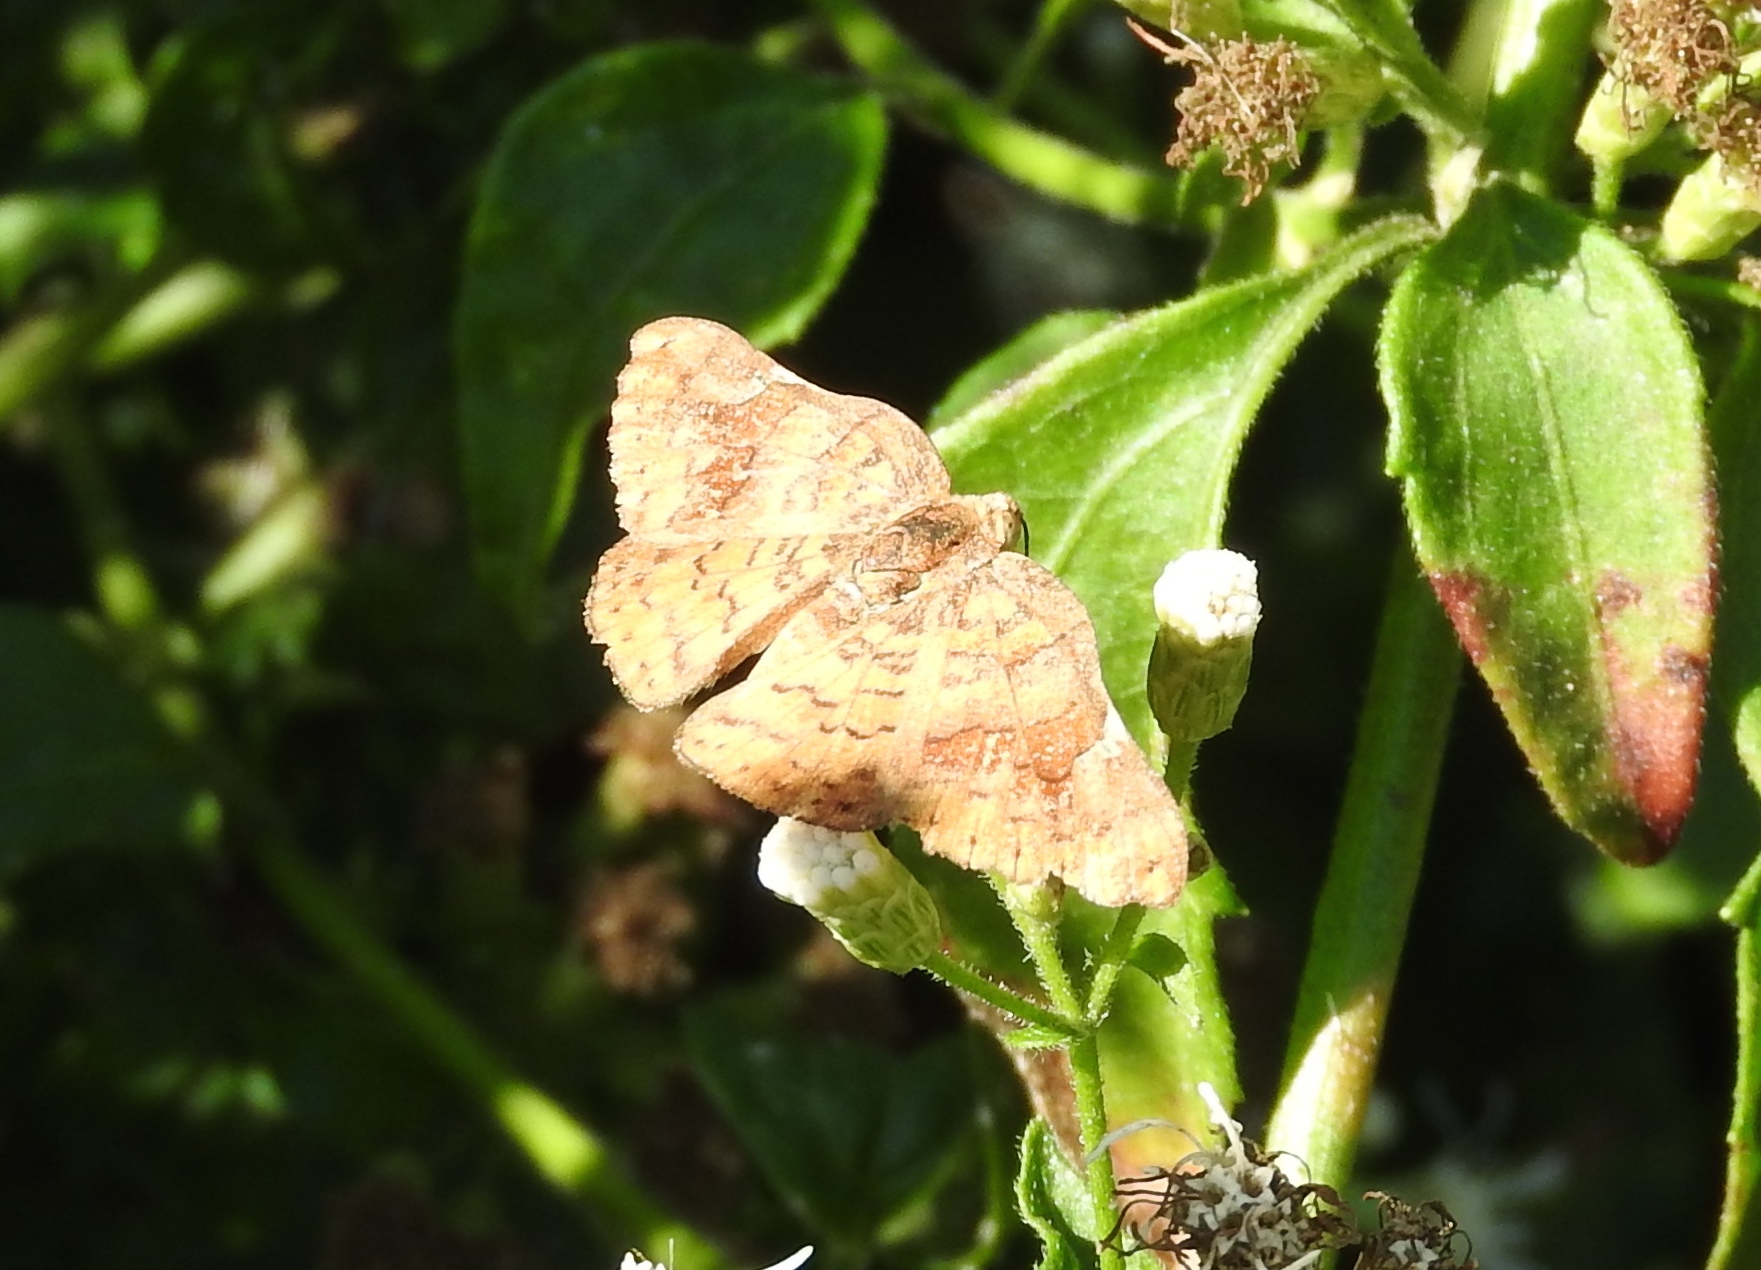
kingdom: Animalia
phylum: Arthropoda
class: Insecta
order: Lepidoptera
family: Riodinidae
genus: Curvie
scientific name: Curvie emesia
